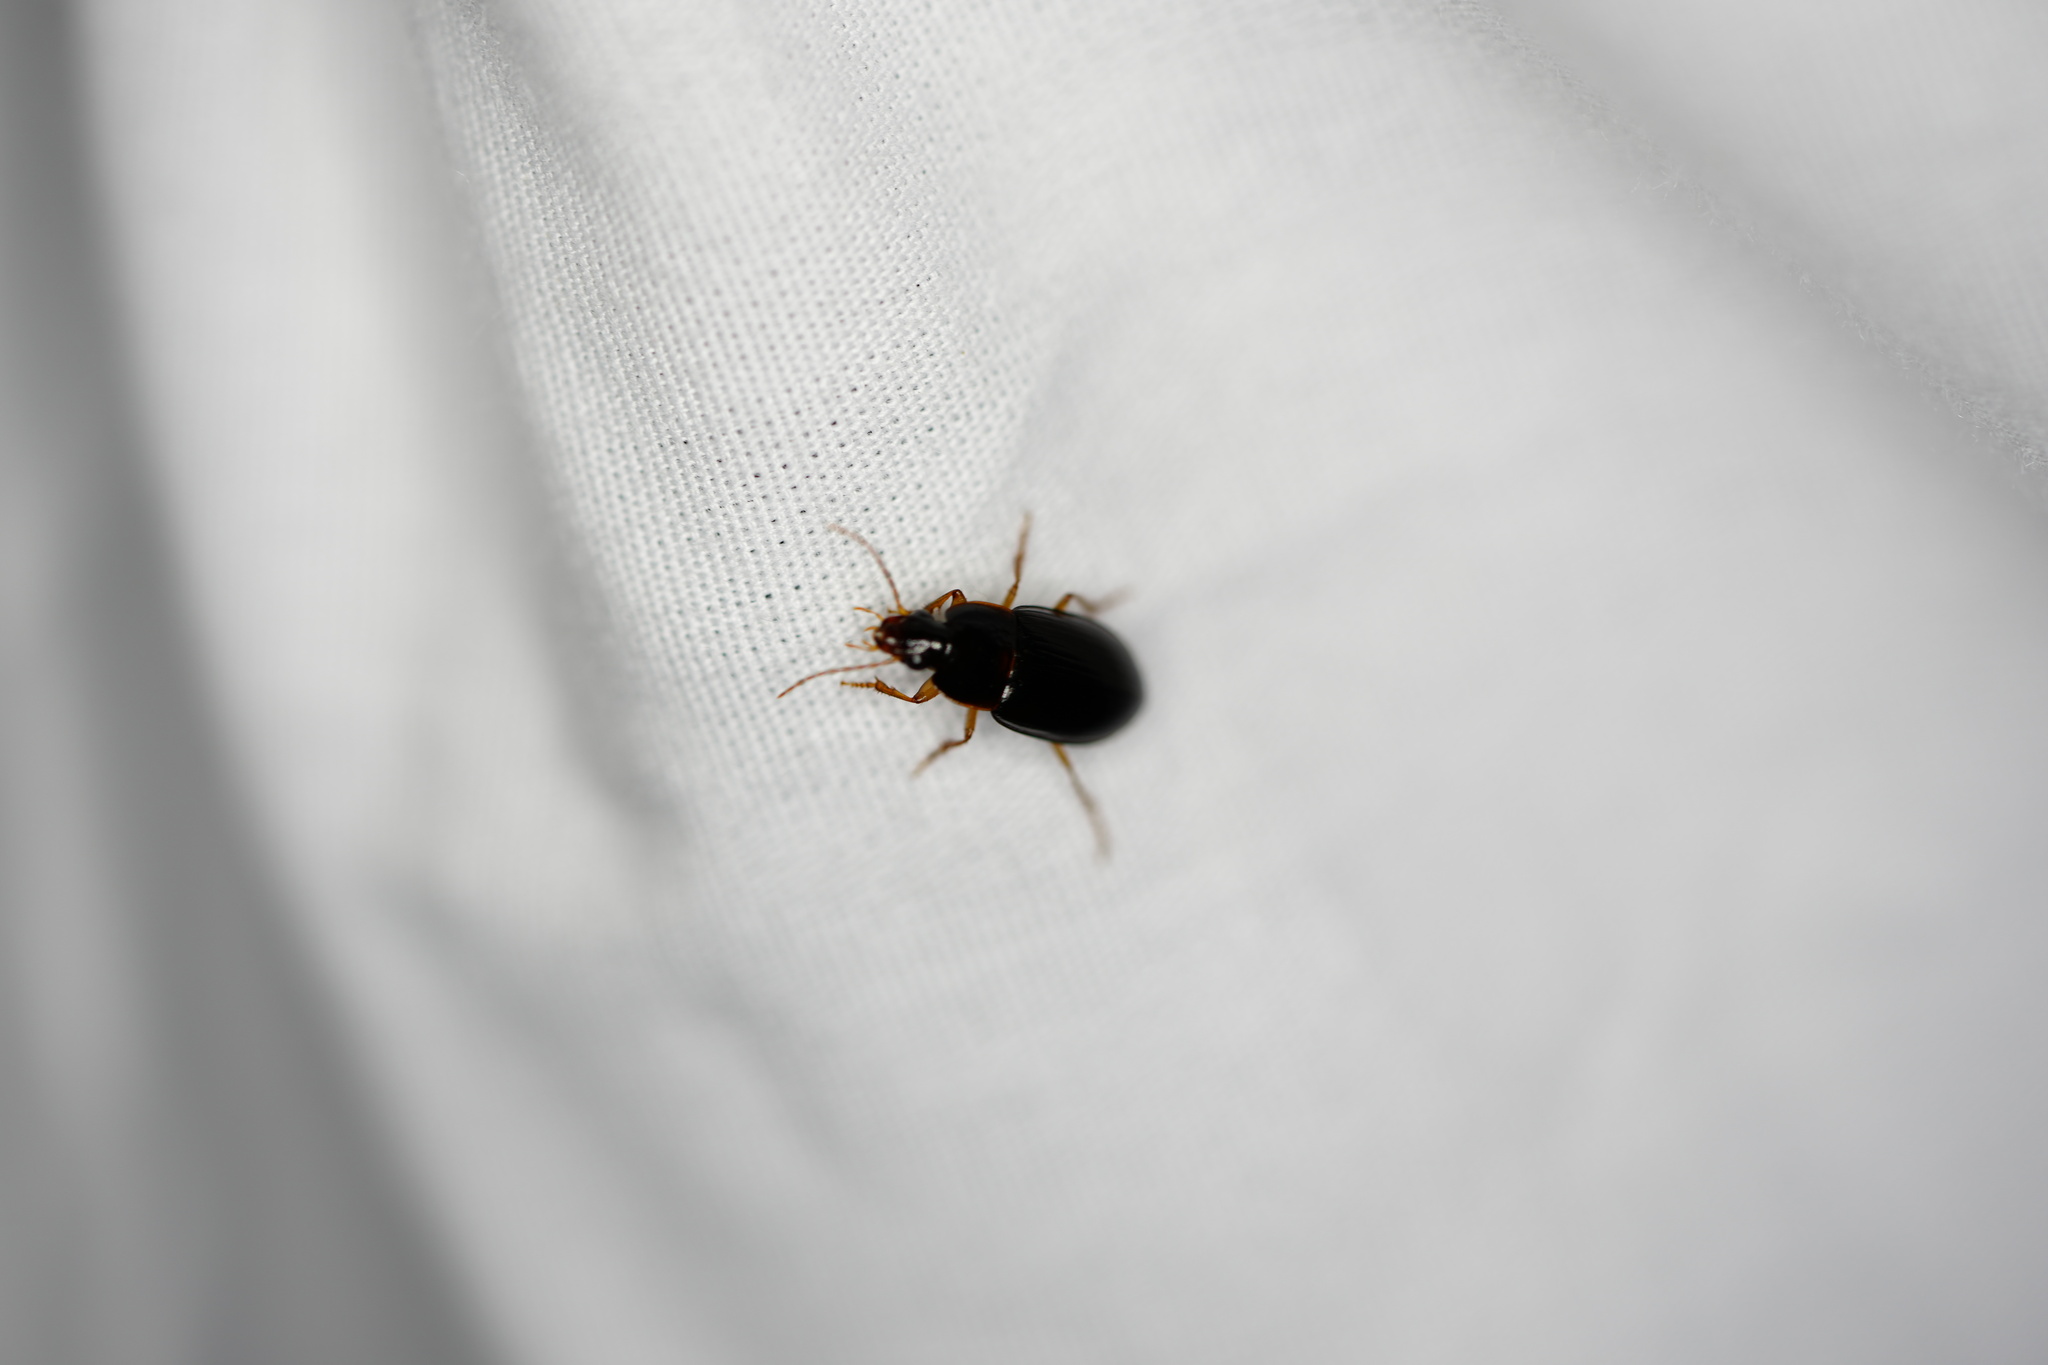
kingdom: Animalia
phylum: Arthropoda
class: Insecta
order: Coleoptera
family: Carabidae
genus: Notiobia
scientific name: Notiobia terminata
